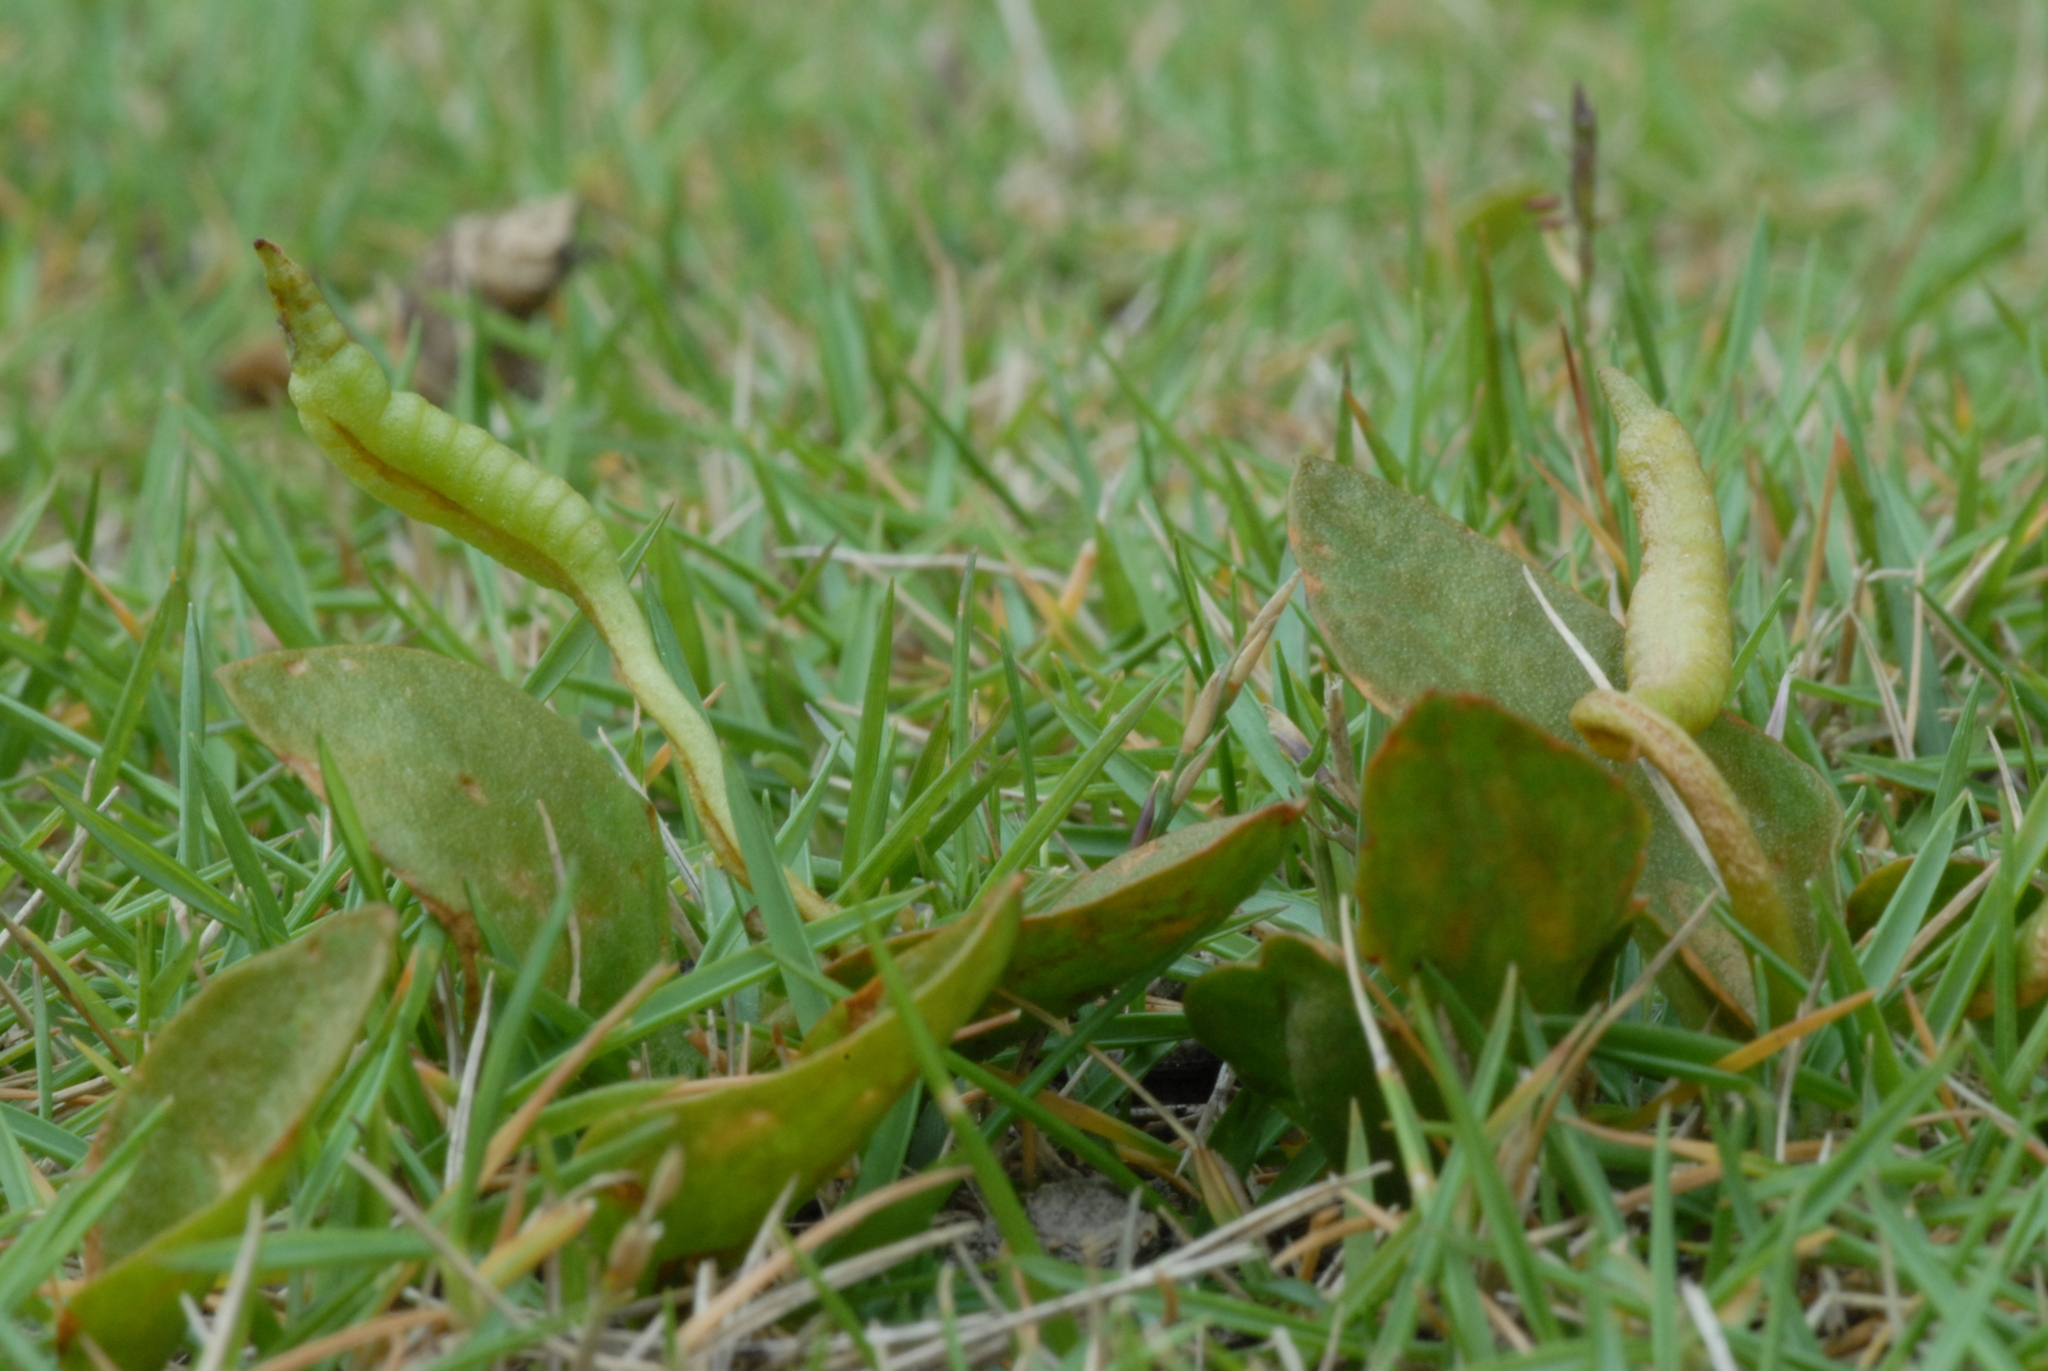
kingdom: Plantae
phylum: Tracheophyta
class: Polypodiopsida
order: Ophioglossales
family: Ophioglossaceae
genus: Ophioglossum
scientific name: Ophioglossum petiolatum
